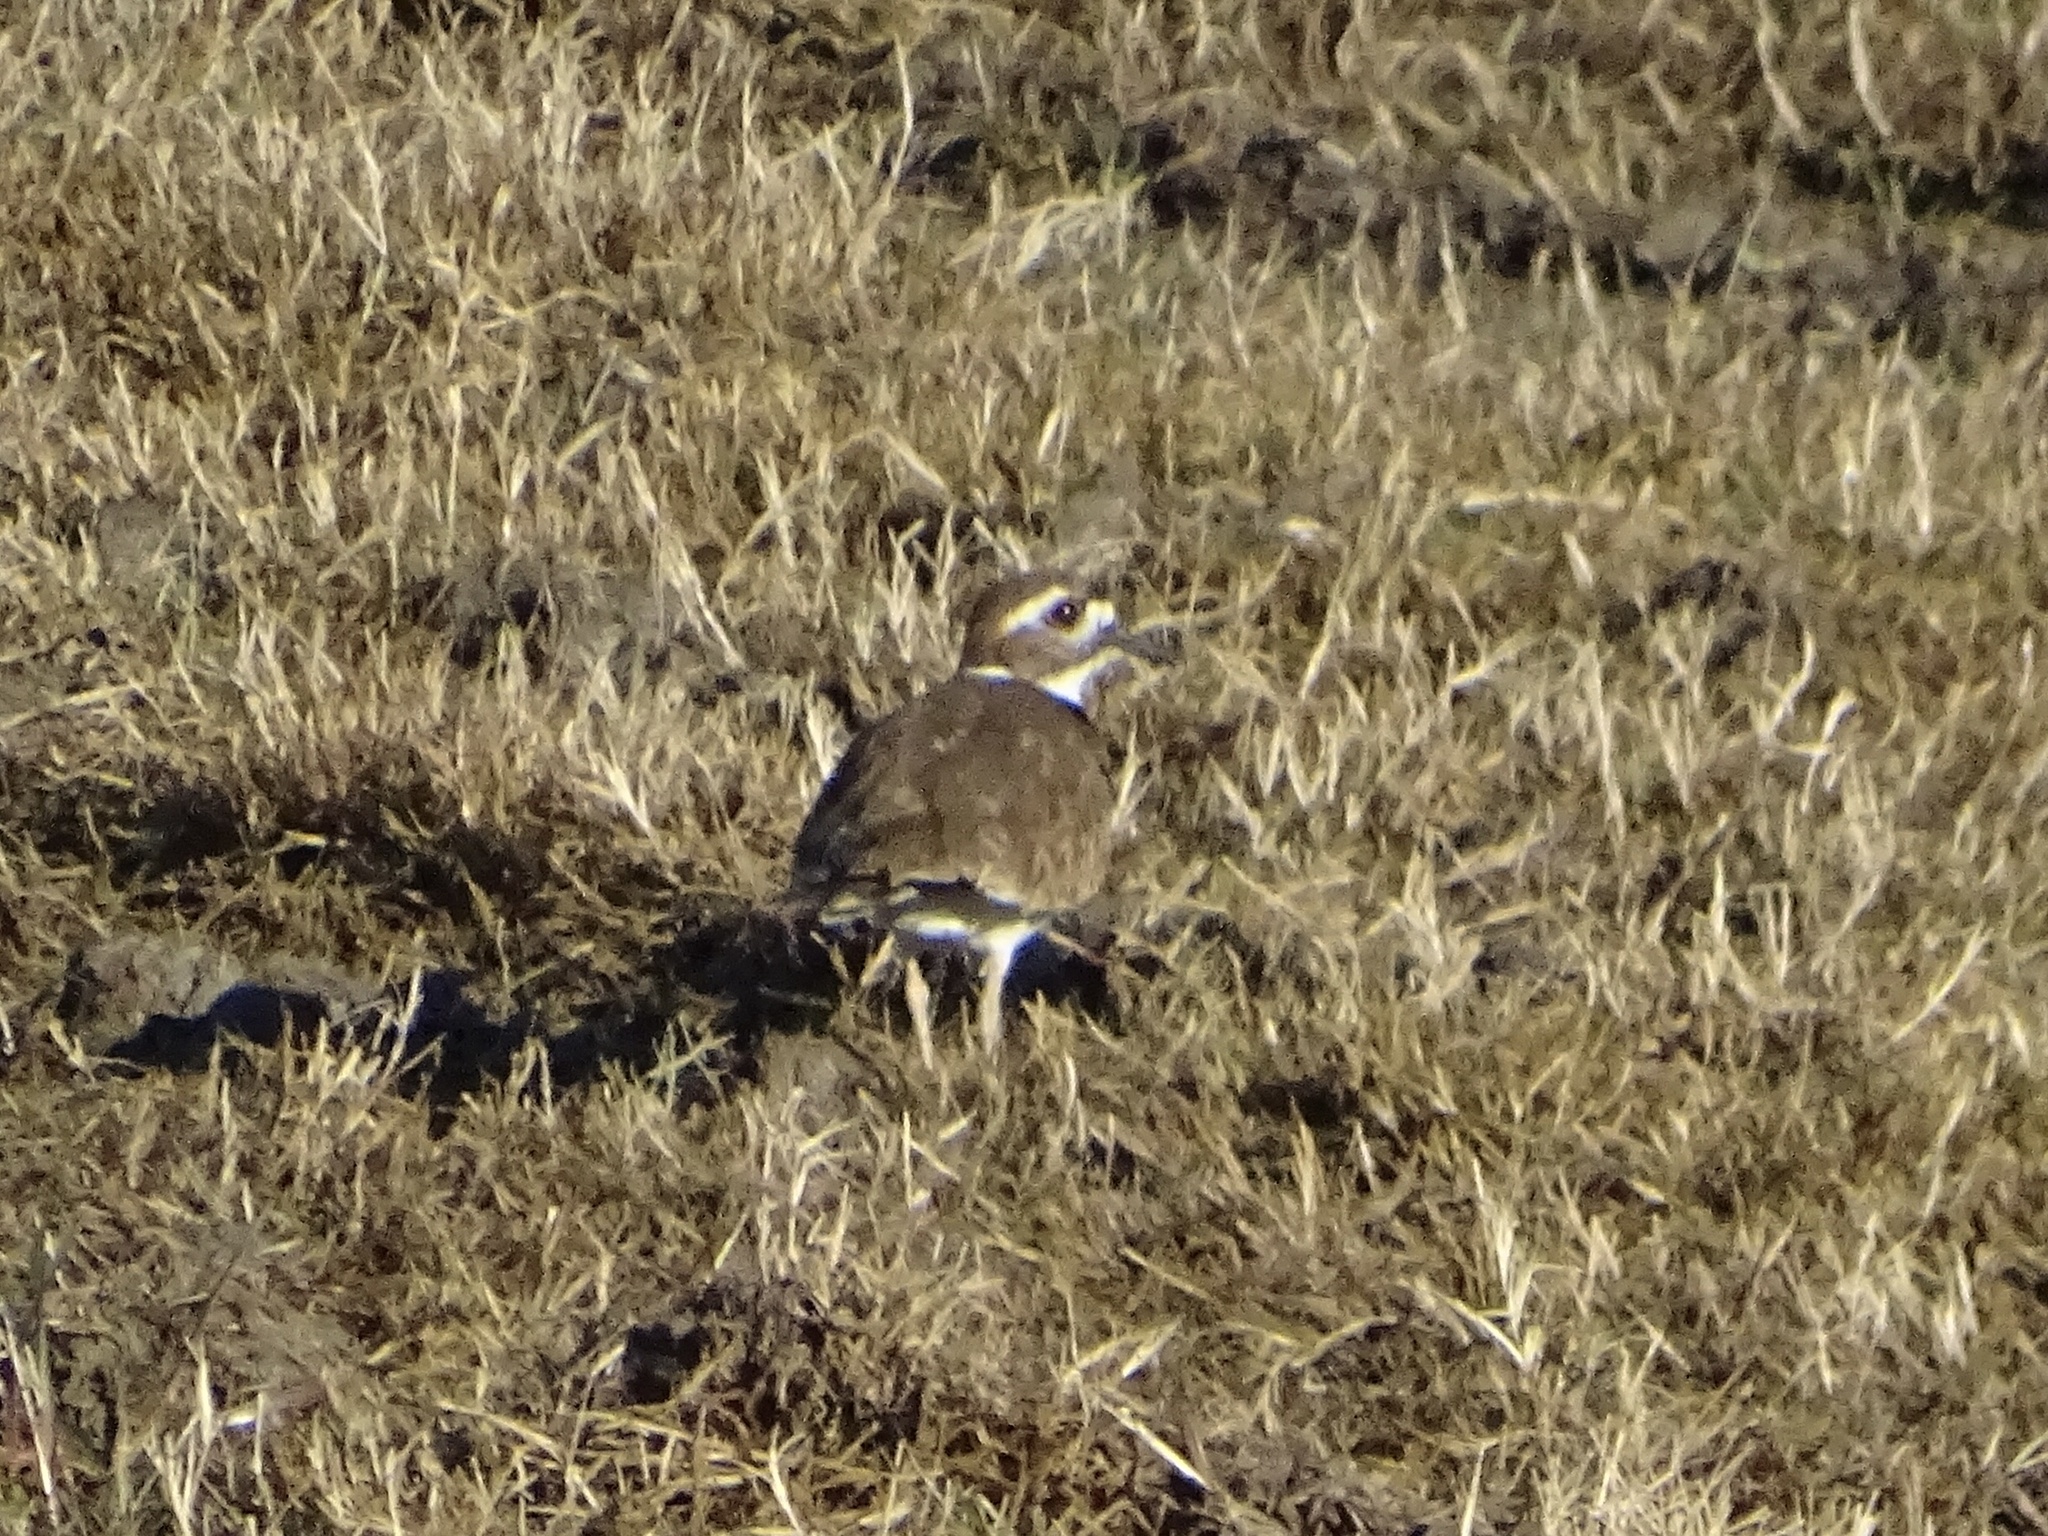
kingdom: Animalia
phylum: Chordata
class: Aves
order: Charadriiformes
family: Charadriidae
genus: Charadrius
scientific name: Charadrius vociferus
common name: Killdeer
